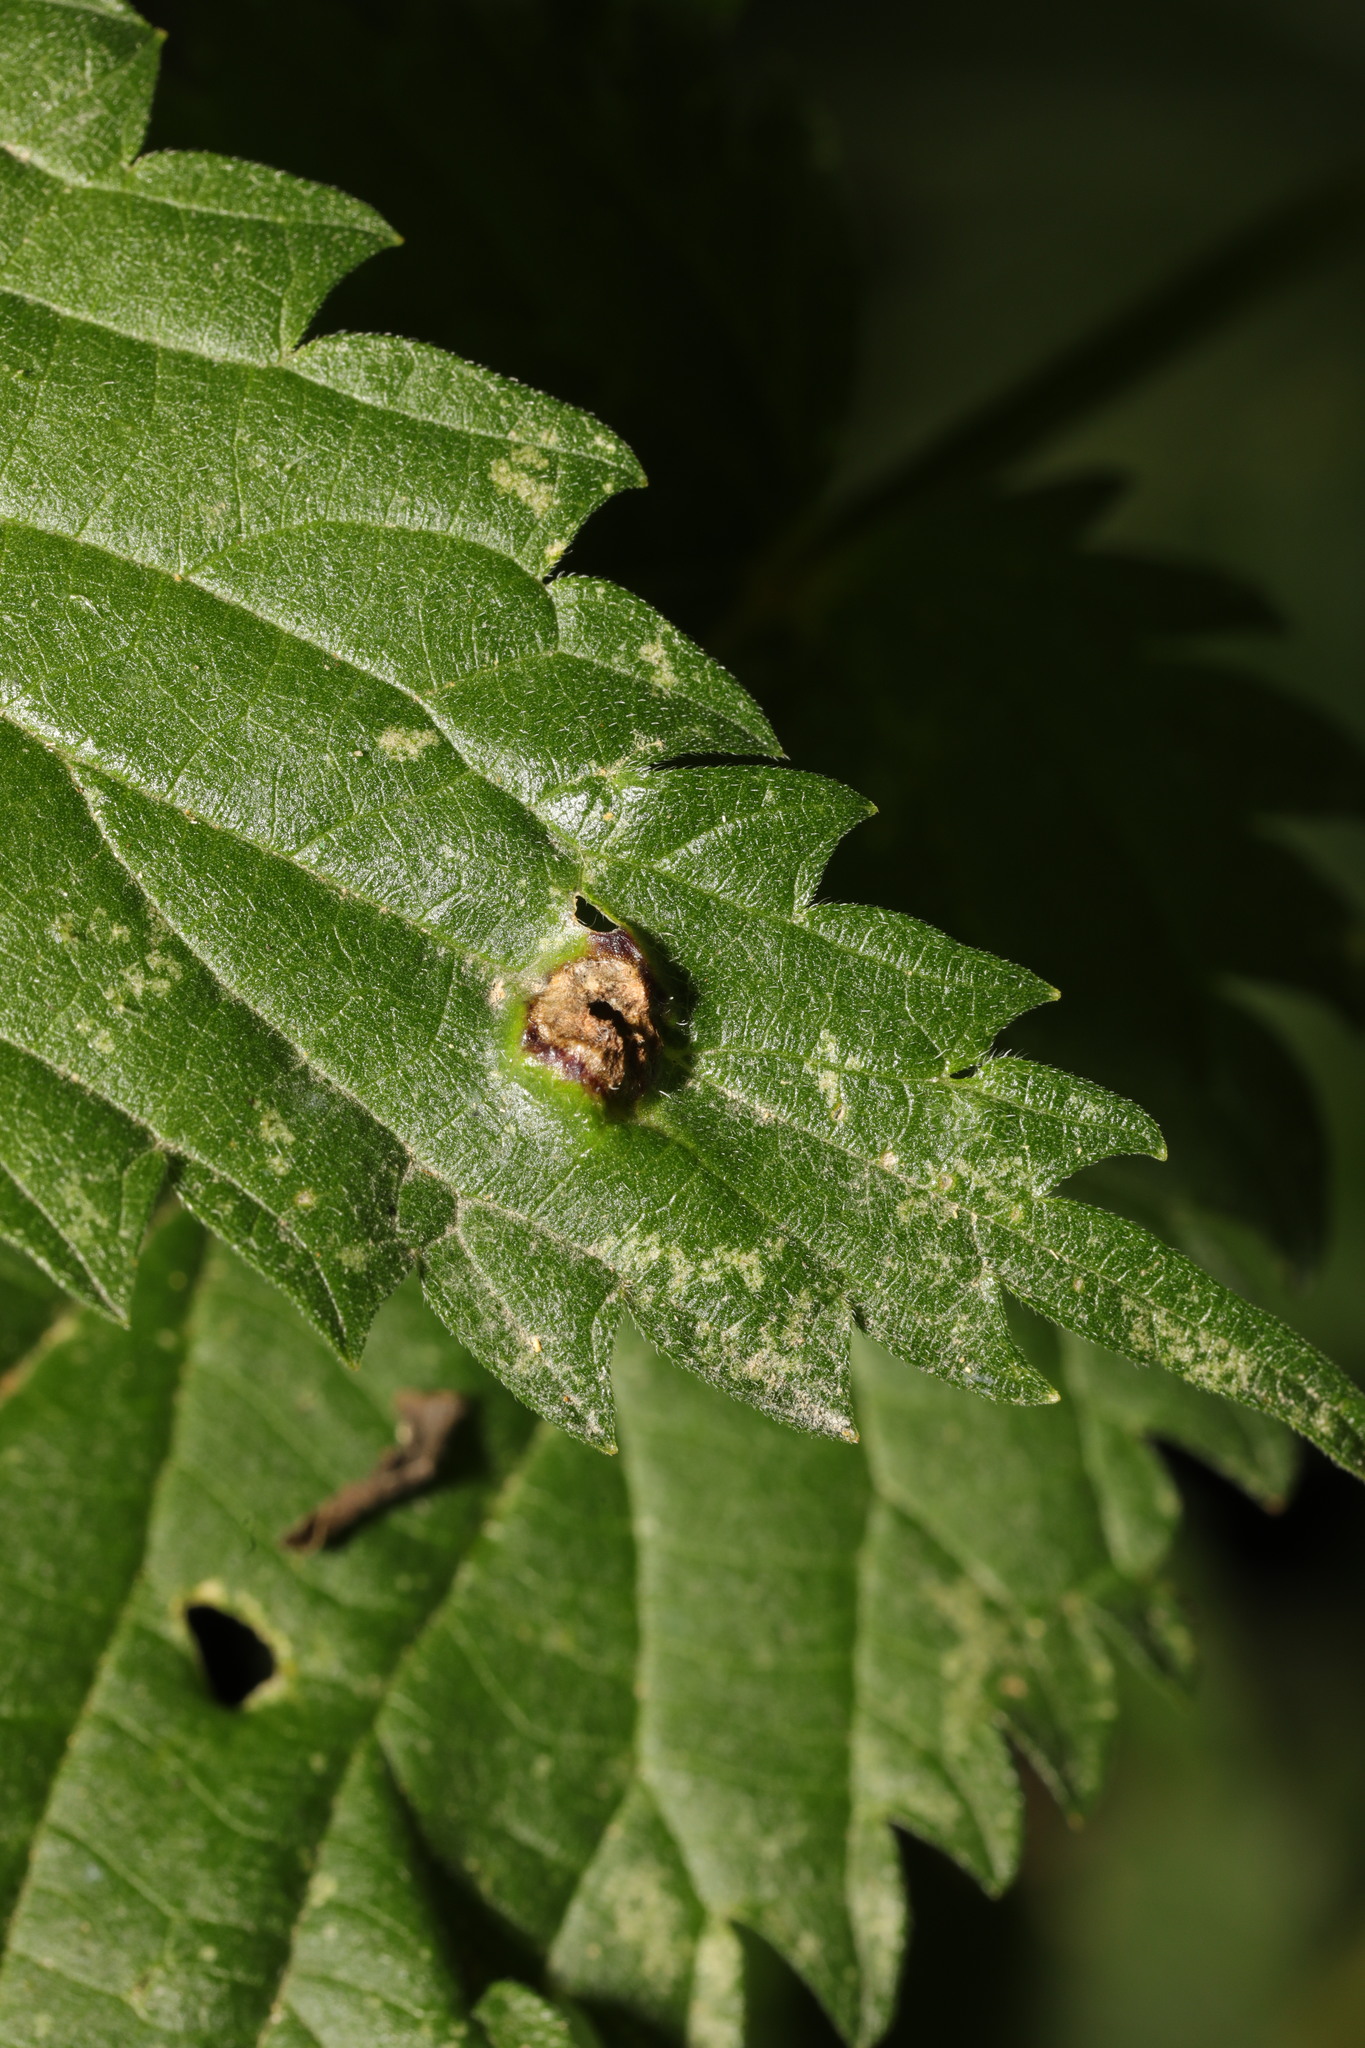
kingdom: Animalia
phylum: Arthropoda
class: Insecta
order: Diptera
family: Cecidomyiidae
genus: Dasineura
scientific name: Dasineura urticae
